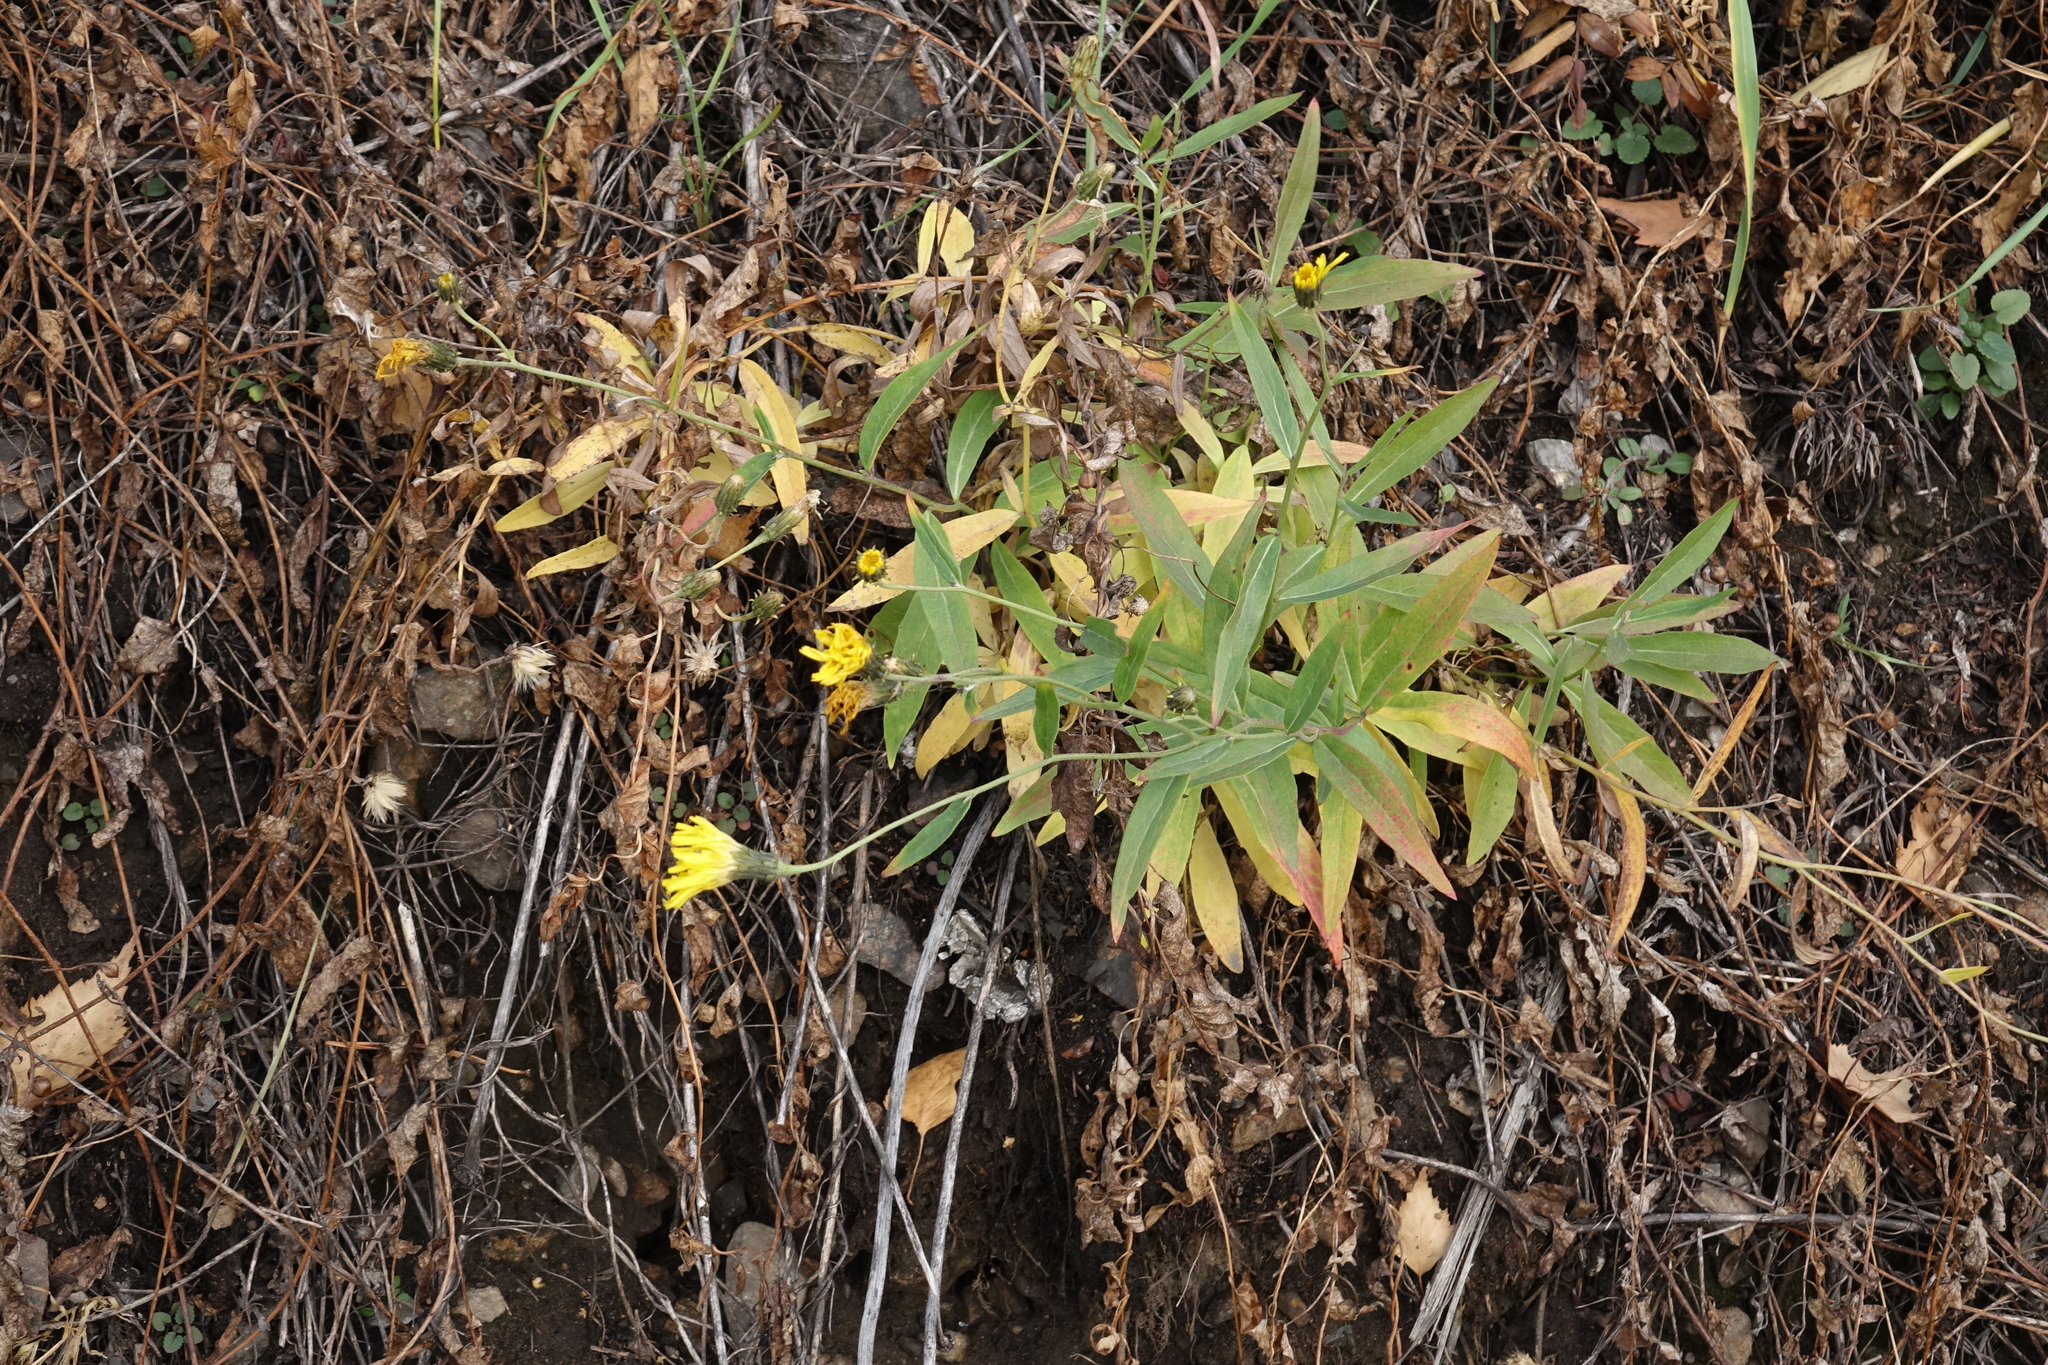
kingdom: Plantae
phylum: Tracheophyta
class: Magnoliopsida
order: Asterales
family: Asteraceae
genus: Hieracium
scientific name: Hieracium umbellatum
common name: Northern hawkweed
